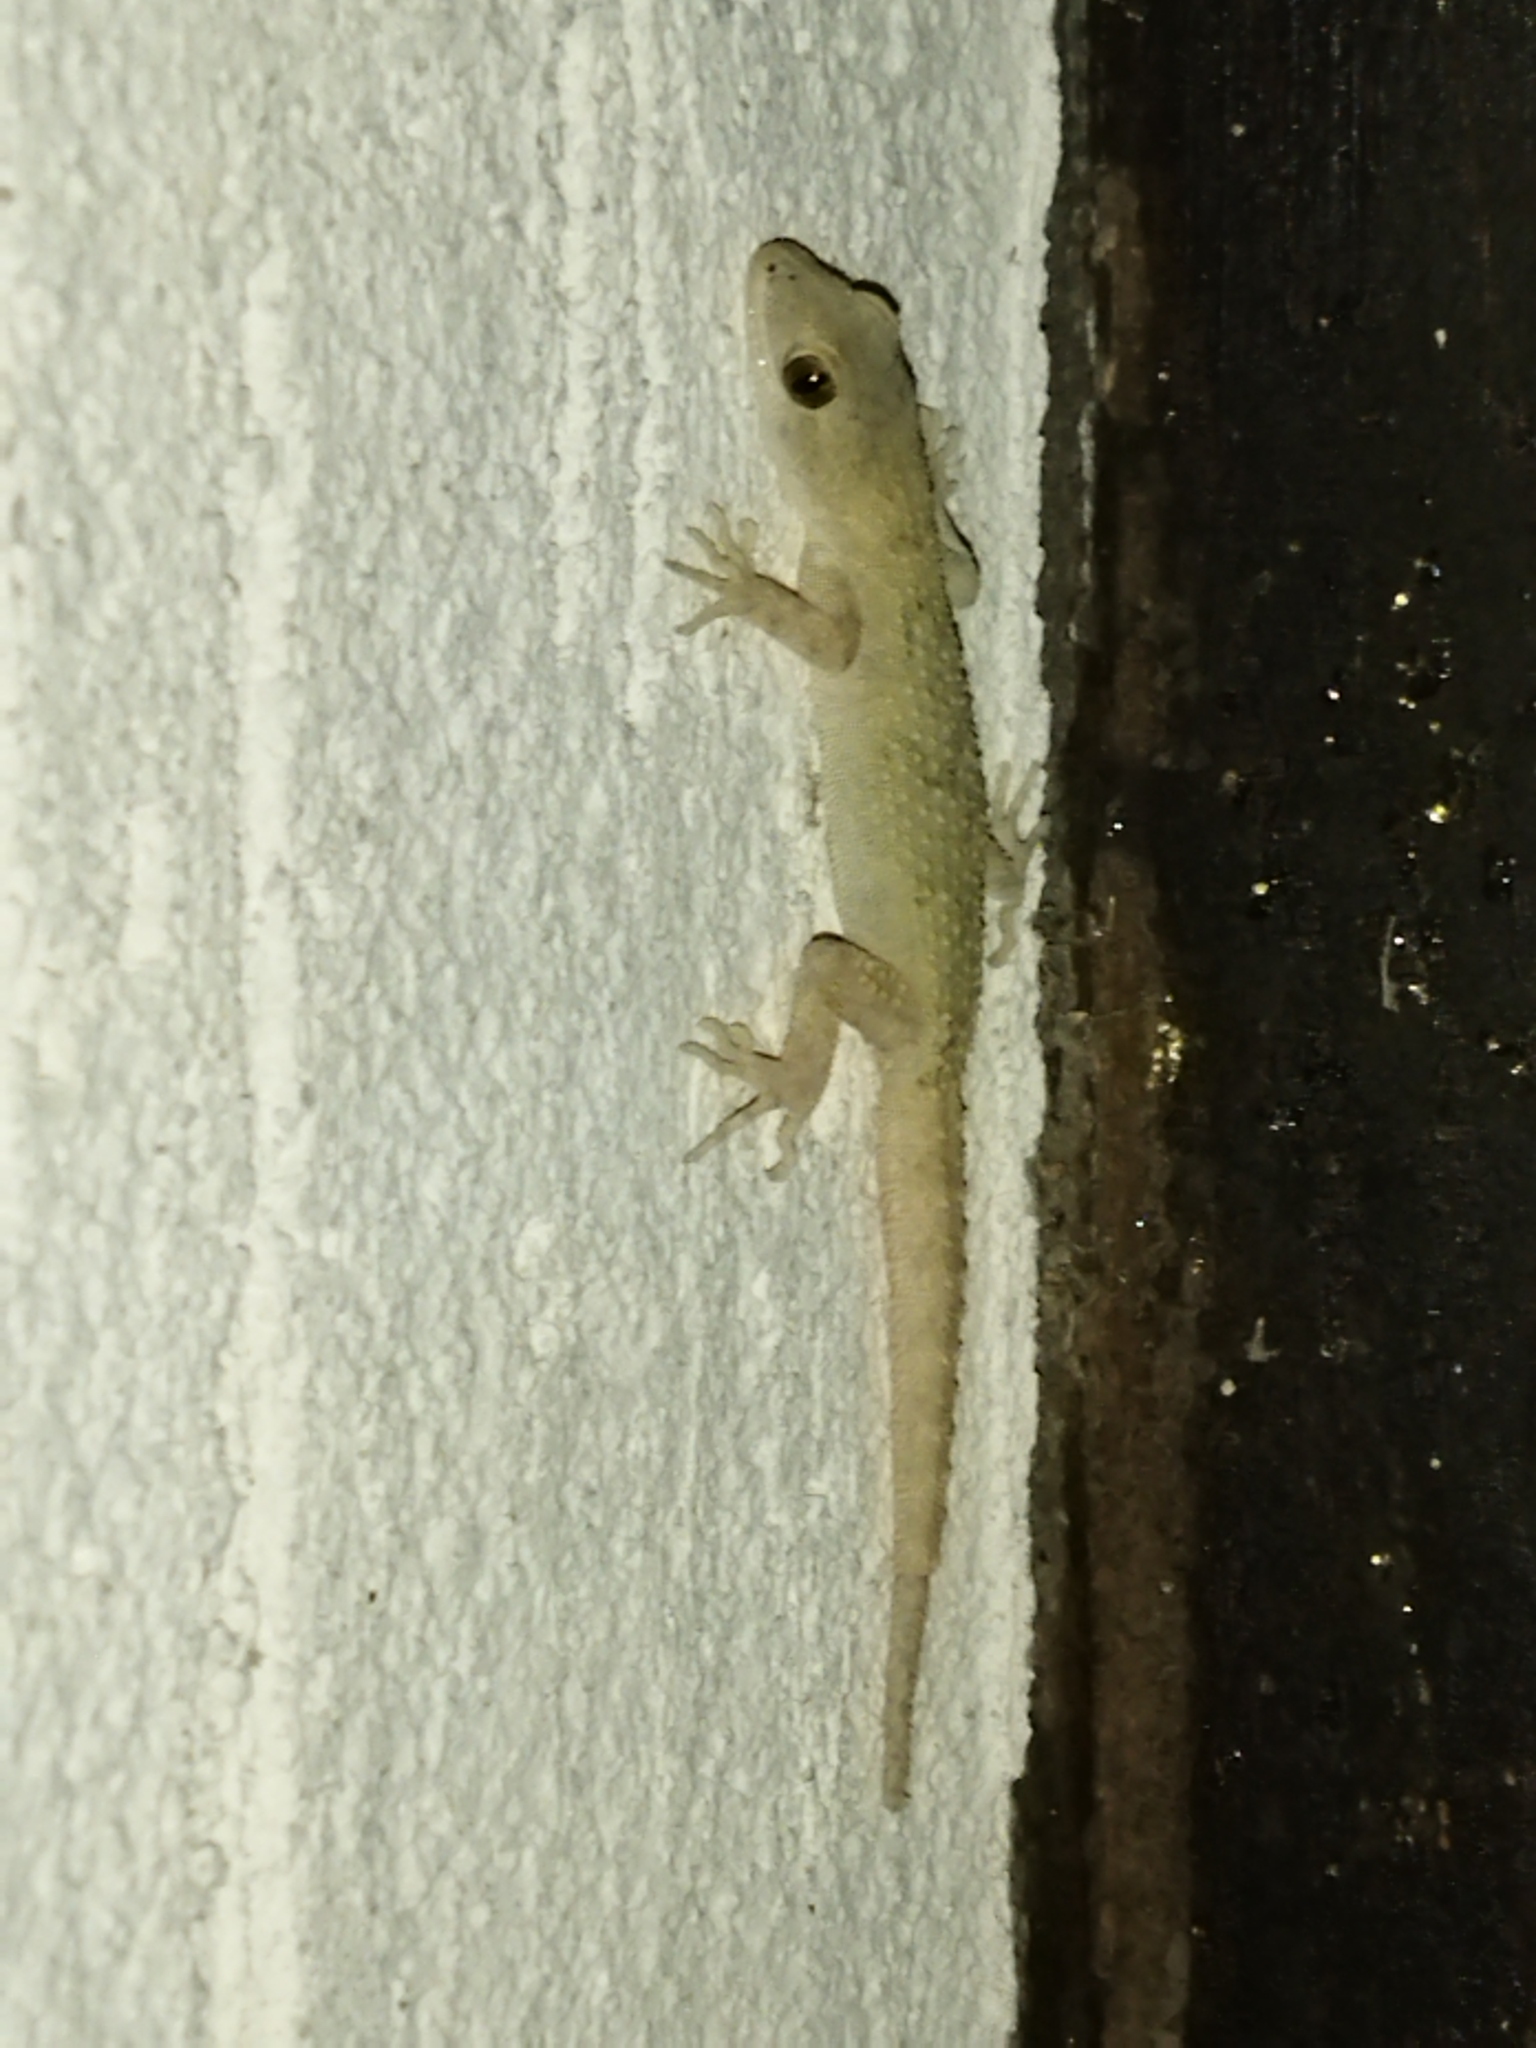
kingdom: Animalia
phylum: Chordata
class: Squamata
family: Gekkonidae
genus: Mediodactylus
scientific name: Mediodactylus kotschyi
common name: Kotschy's gecko
